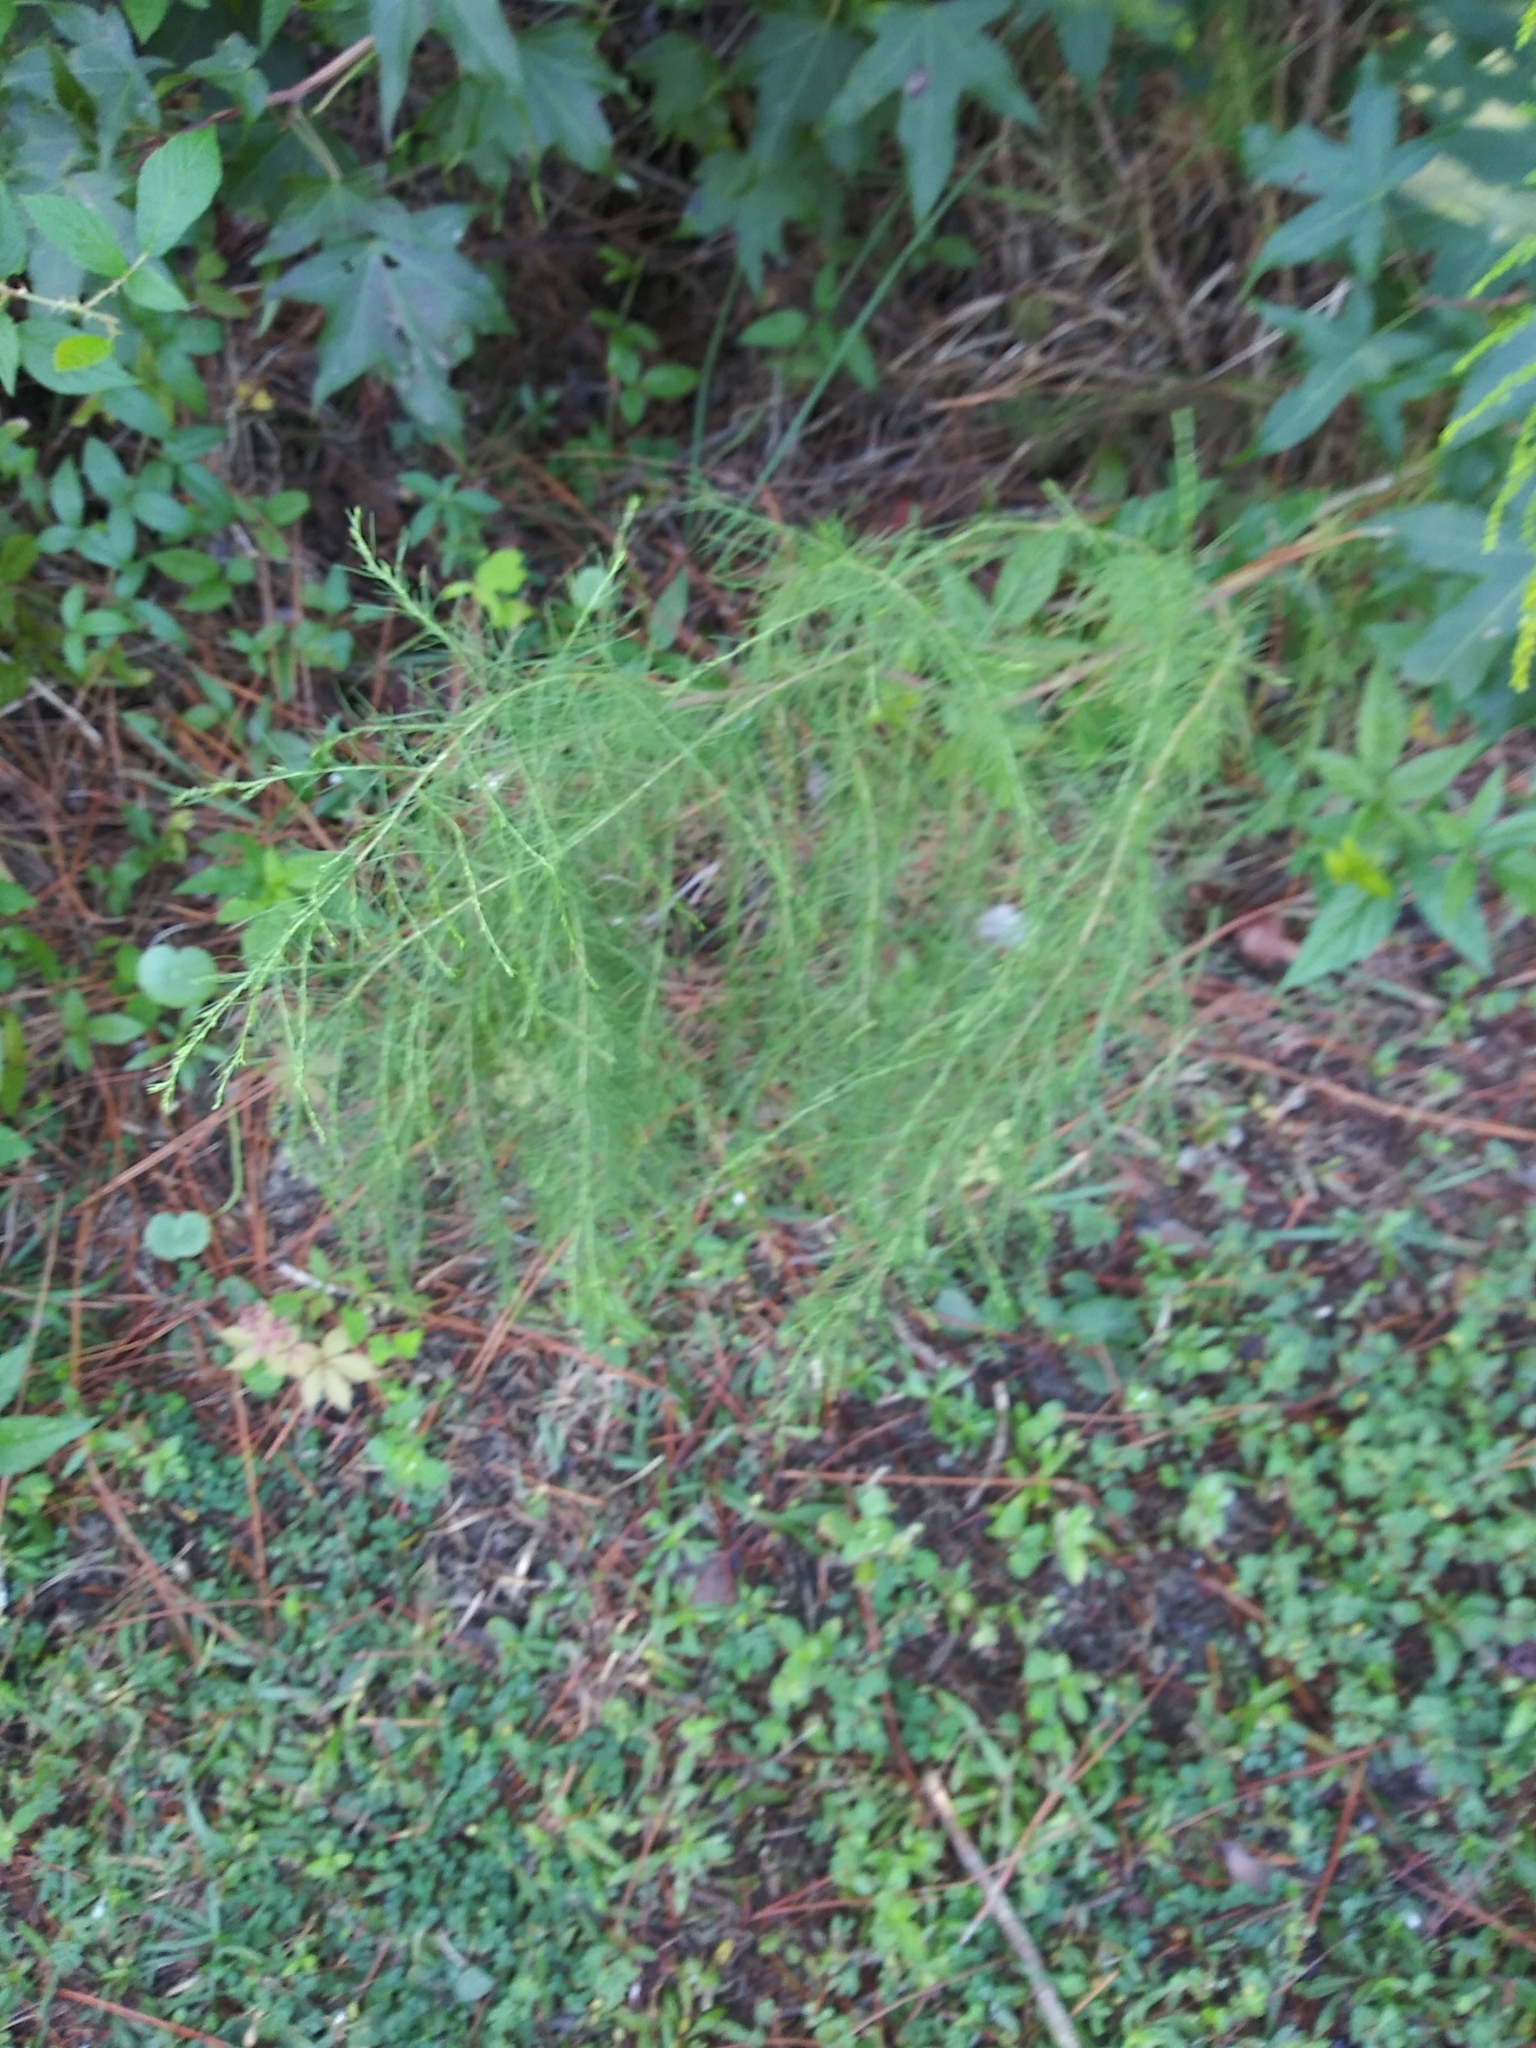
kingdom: Plantae
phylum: Tracheophyta
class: Magnoliopsida
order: Asterales
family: Asteraceae
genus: Eupatorium
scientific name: Eupatorium capillifolium
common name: Dog-fennel
